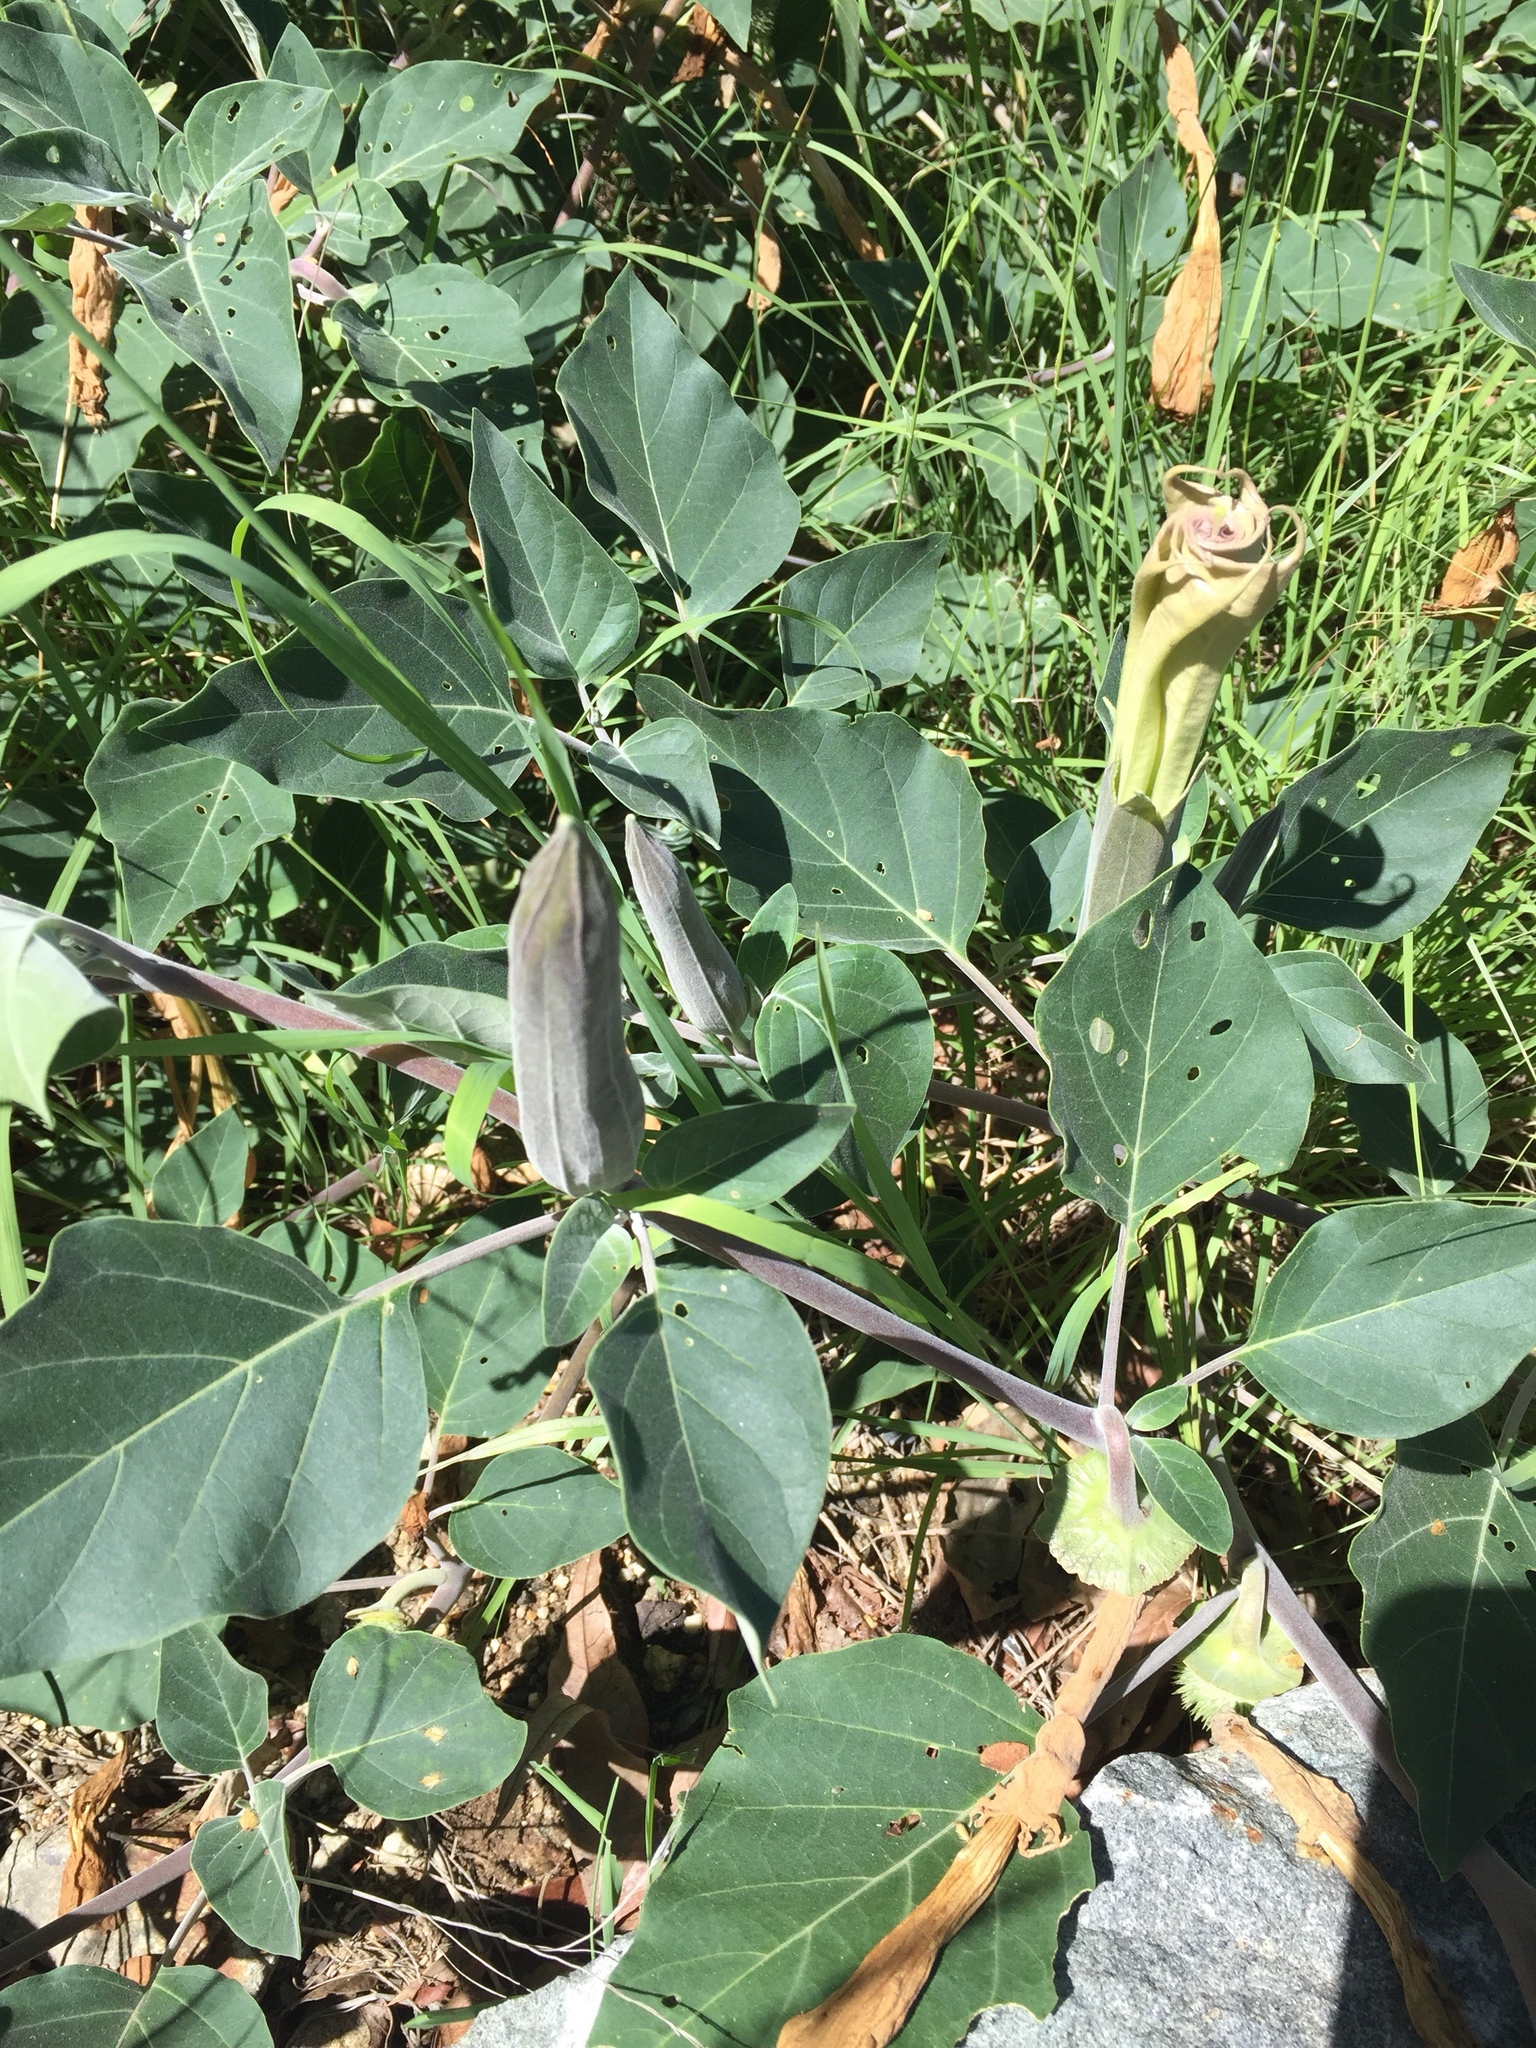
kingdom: Plantae
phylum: Tracheophyta
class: Magnoliopsida
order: Solanales
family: Solanaceae
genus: Datura
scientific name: Datura wrightii
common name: Sacred thorn-apple
